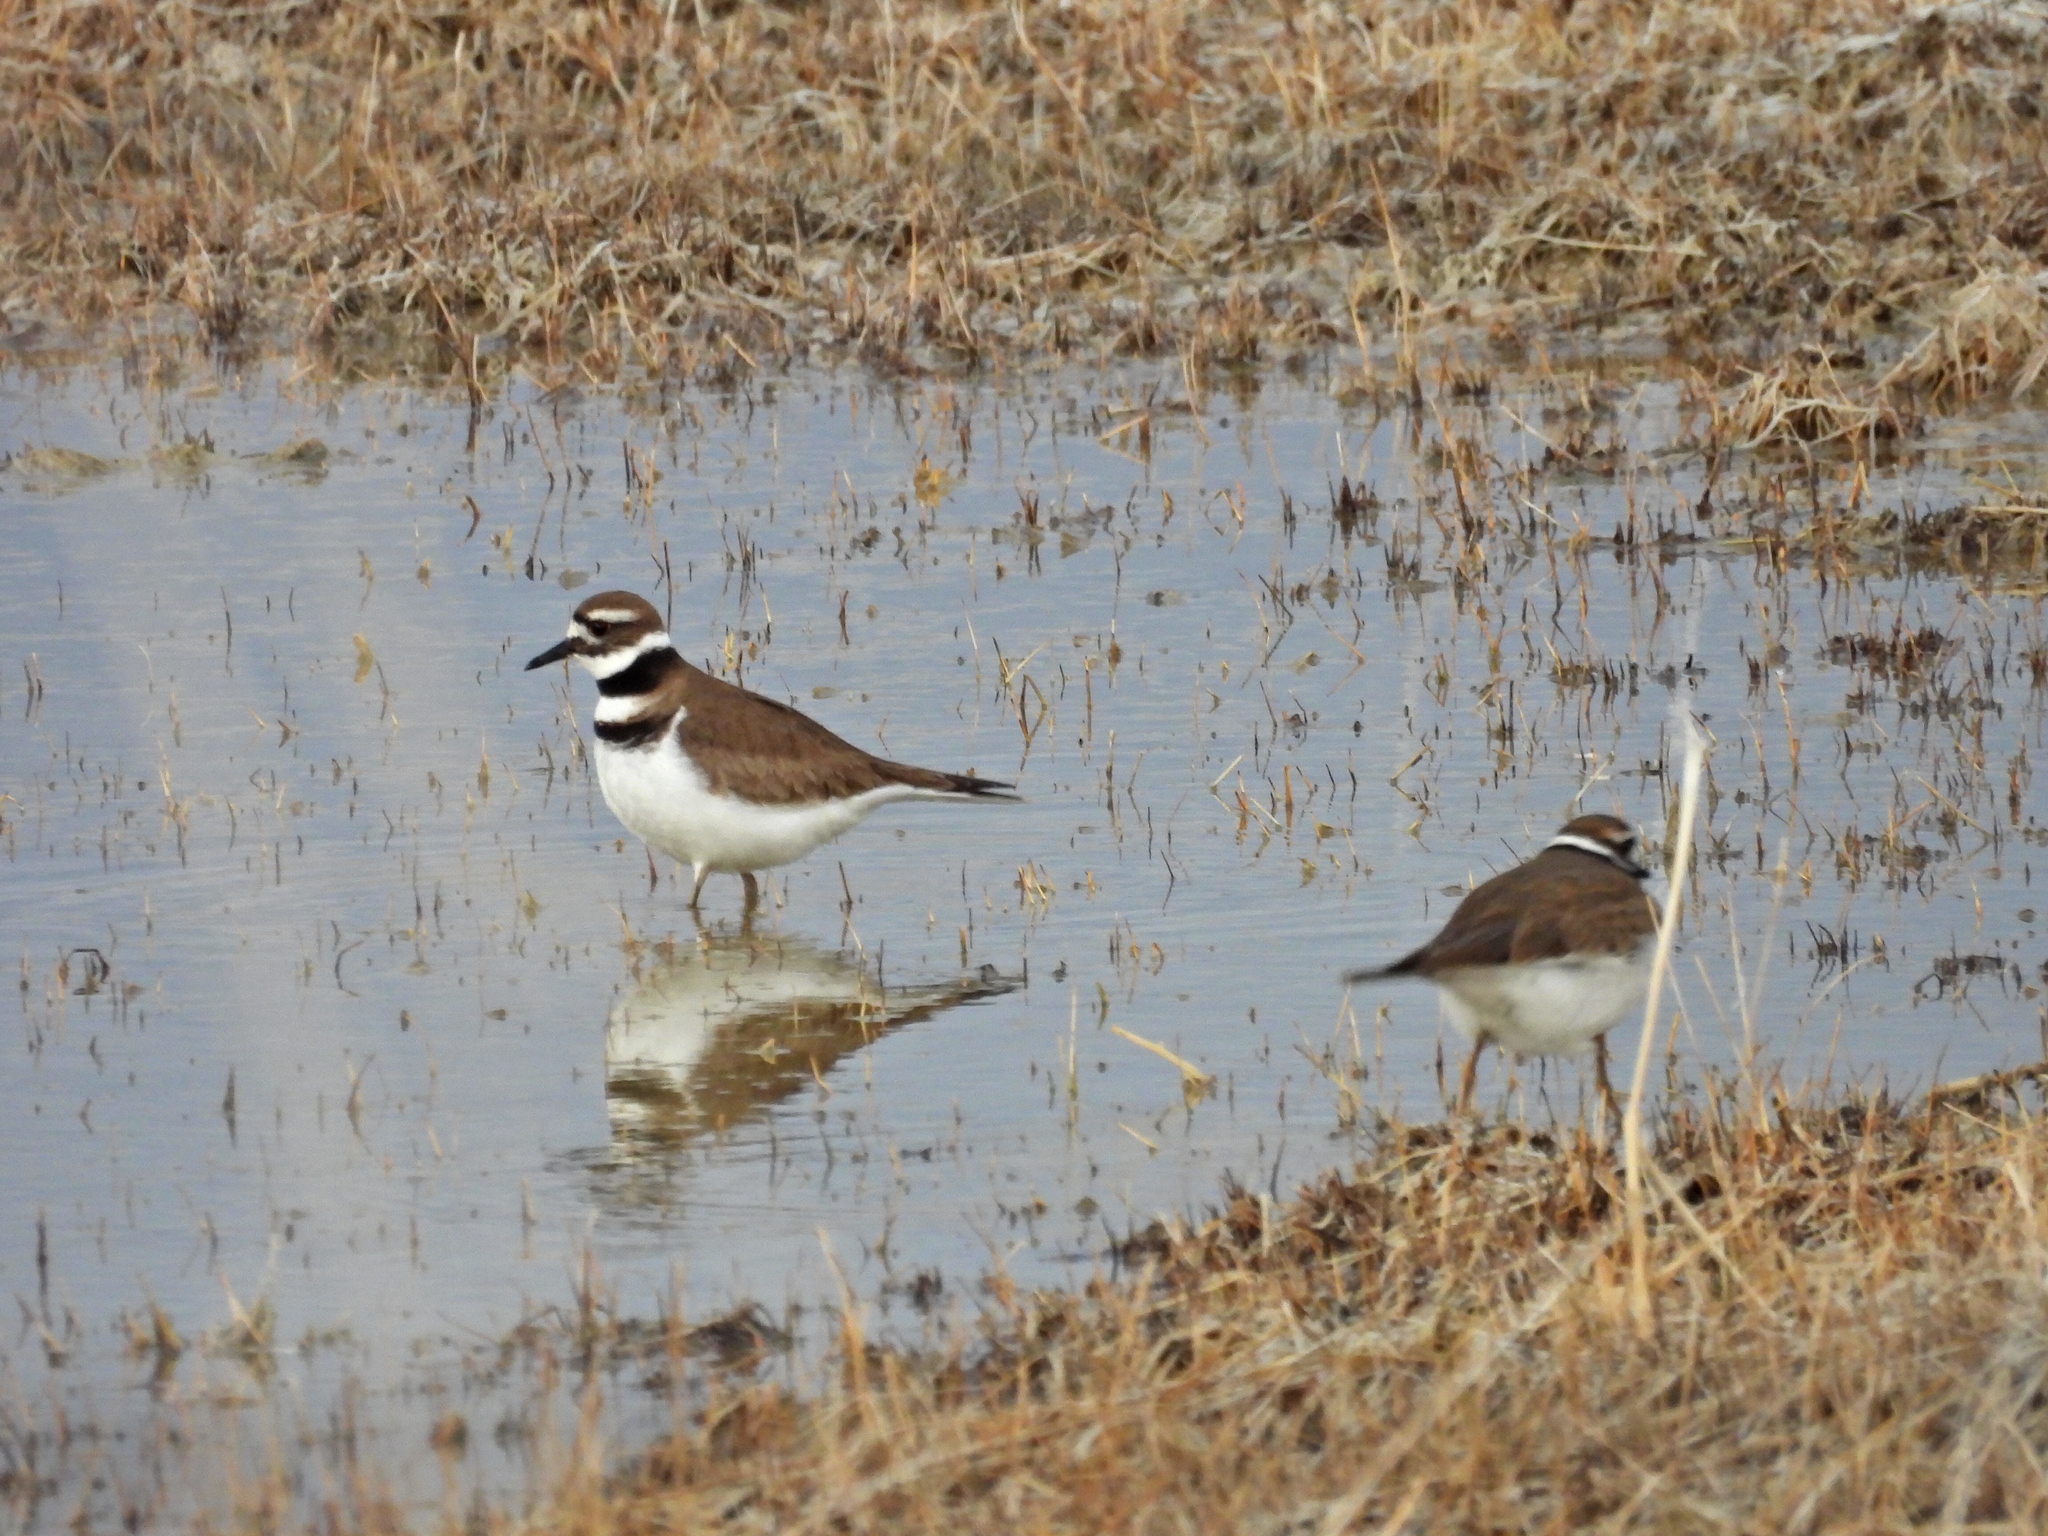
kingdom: Animalia
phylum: Chordata
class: Aves
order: Charadriiformes
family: Charadriidae
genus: Charadrius
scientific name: Charadrius vociferus
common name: Killdeer
